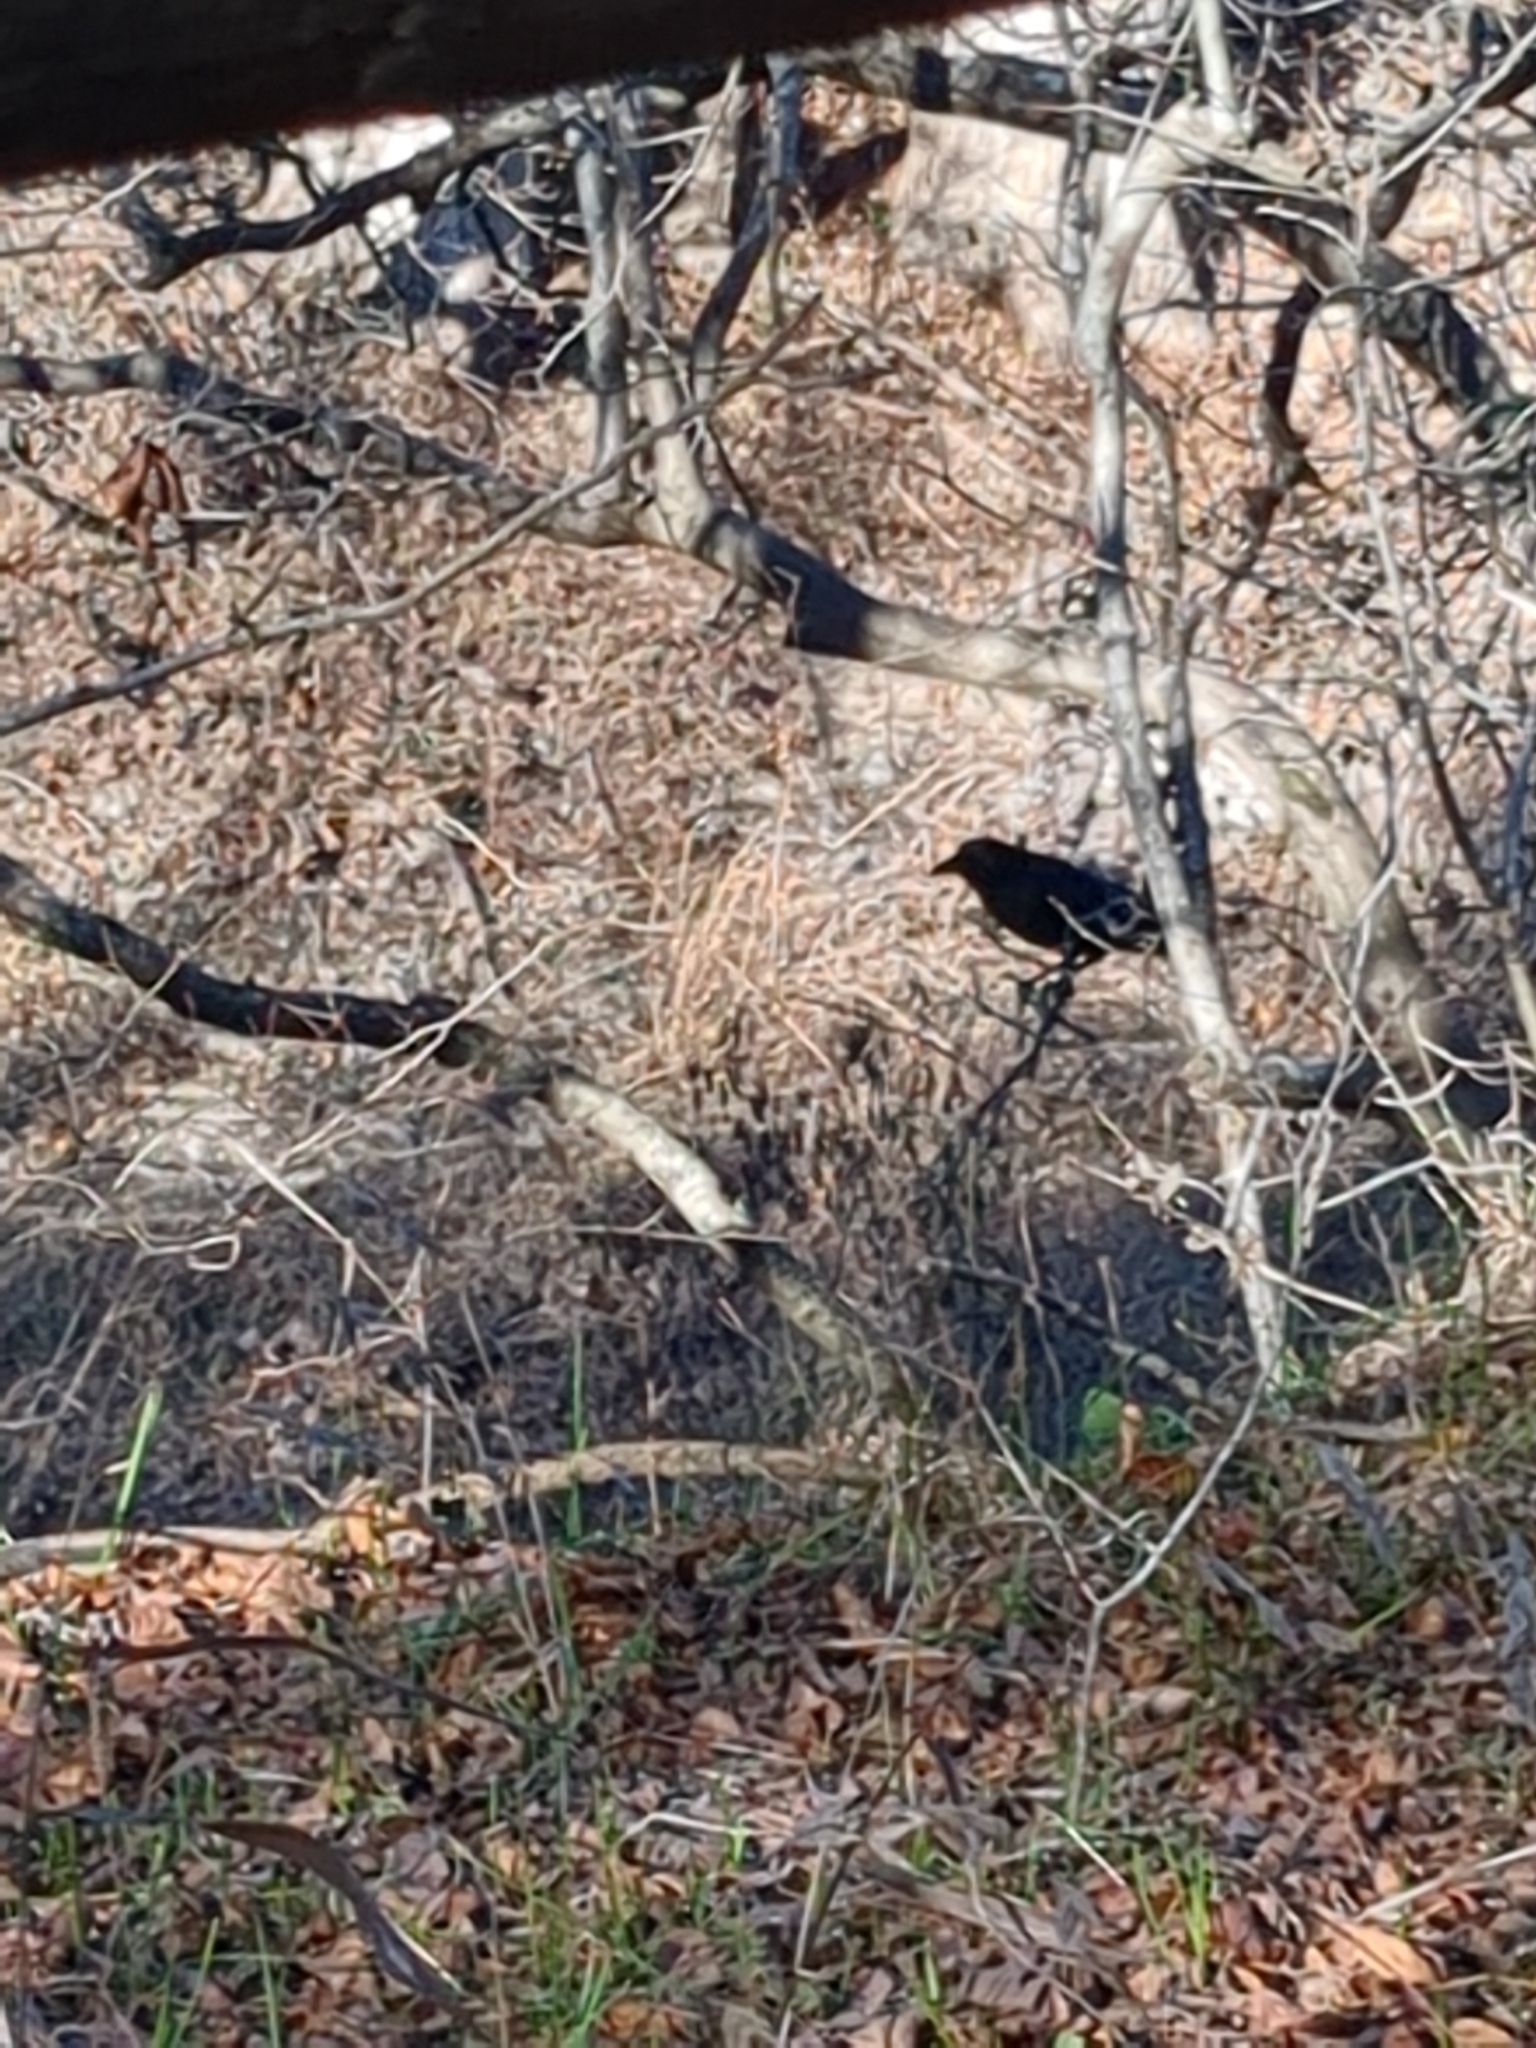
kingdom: Animalia
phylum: Chordata
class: Aves
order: Passeriformes
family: Corvidae
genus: Corvus
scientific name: Corvus brachyrhynchos
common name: American crow
